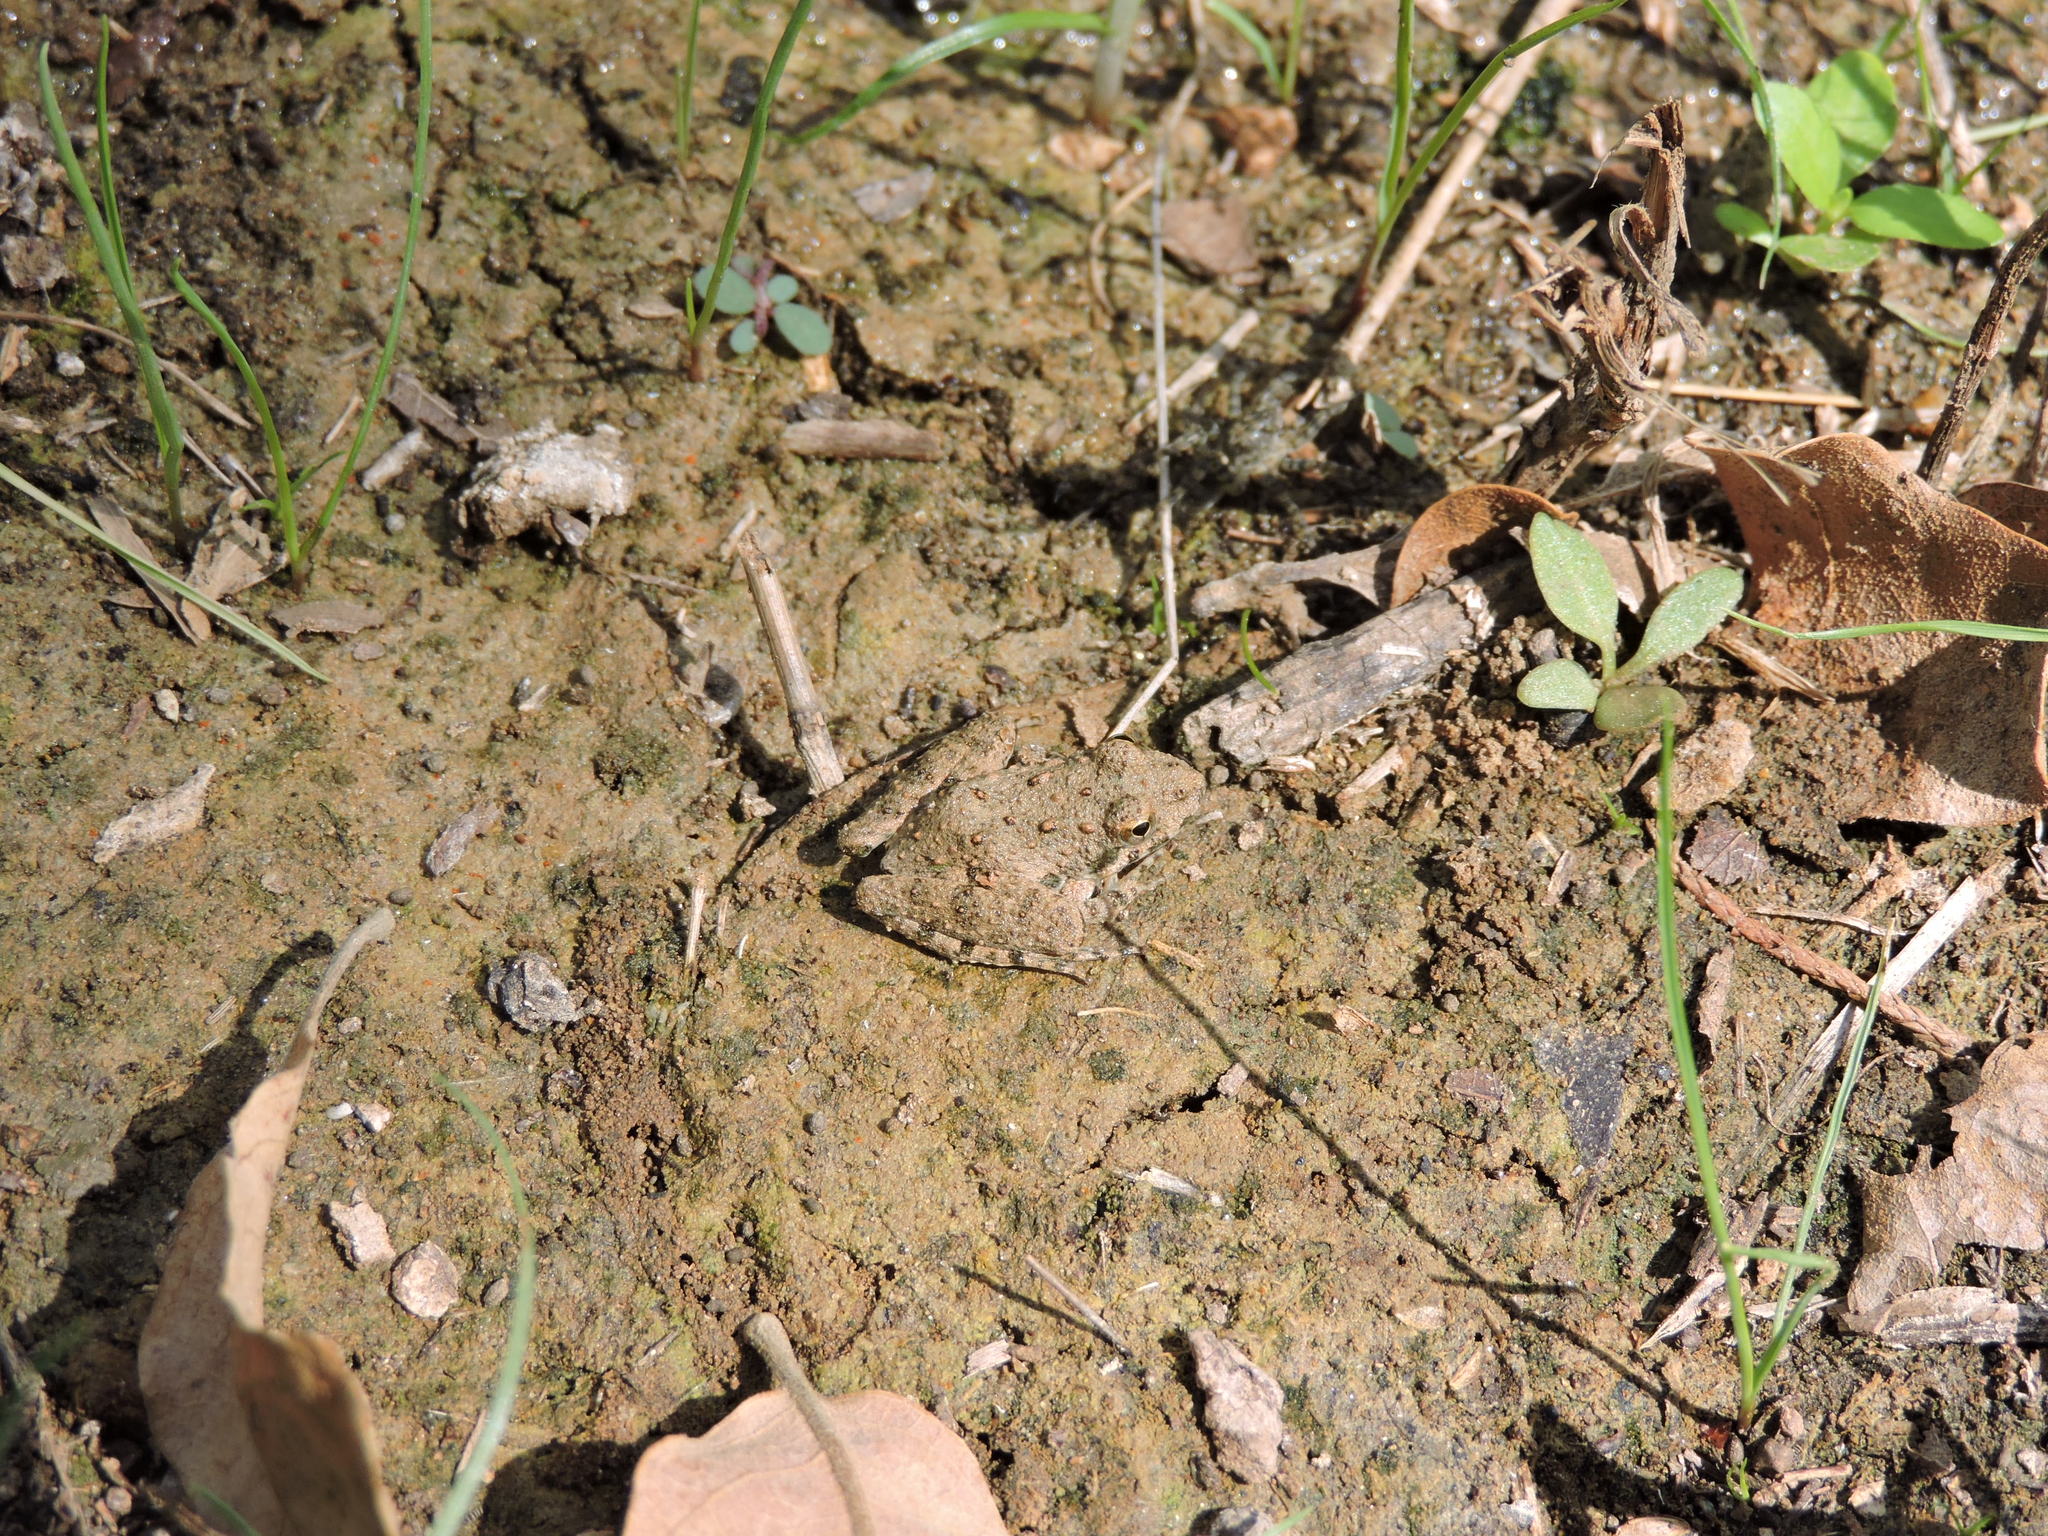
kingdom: Animalia
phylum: Chordata
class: Amphibia
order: Anura
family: Hylidae
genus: Acris
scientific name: Acris blanchardi
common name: Blanchard's cricket frog
